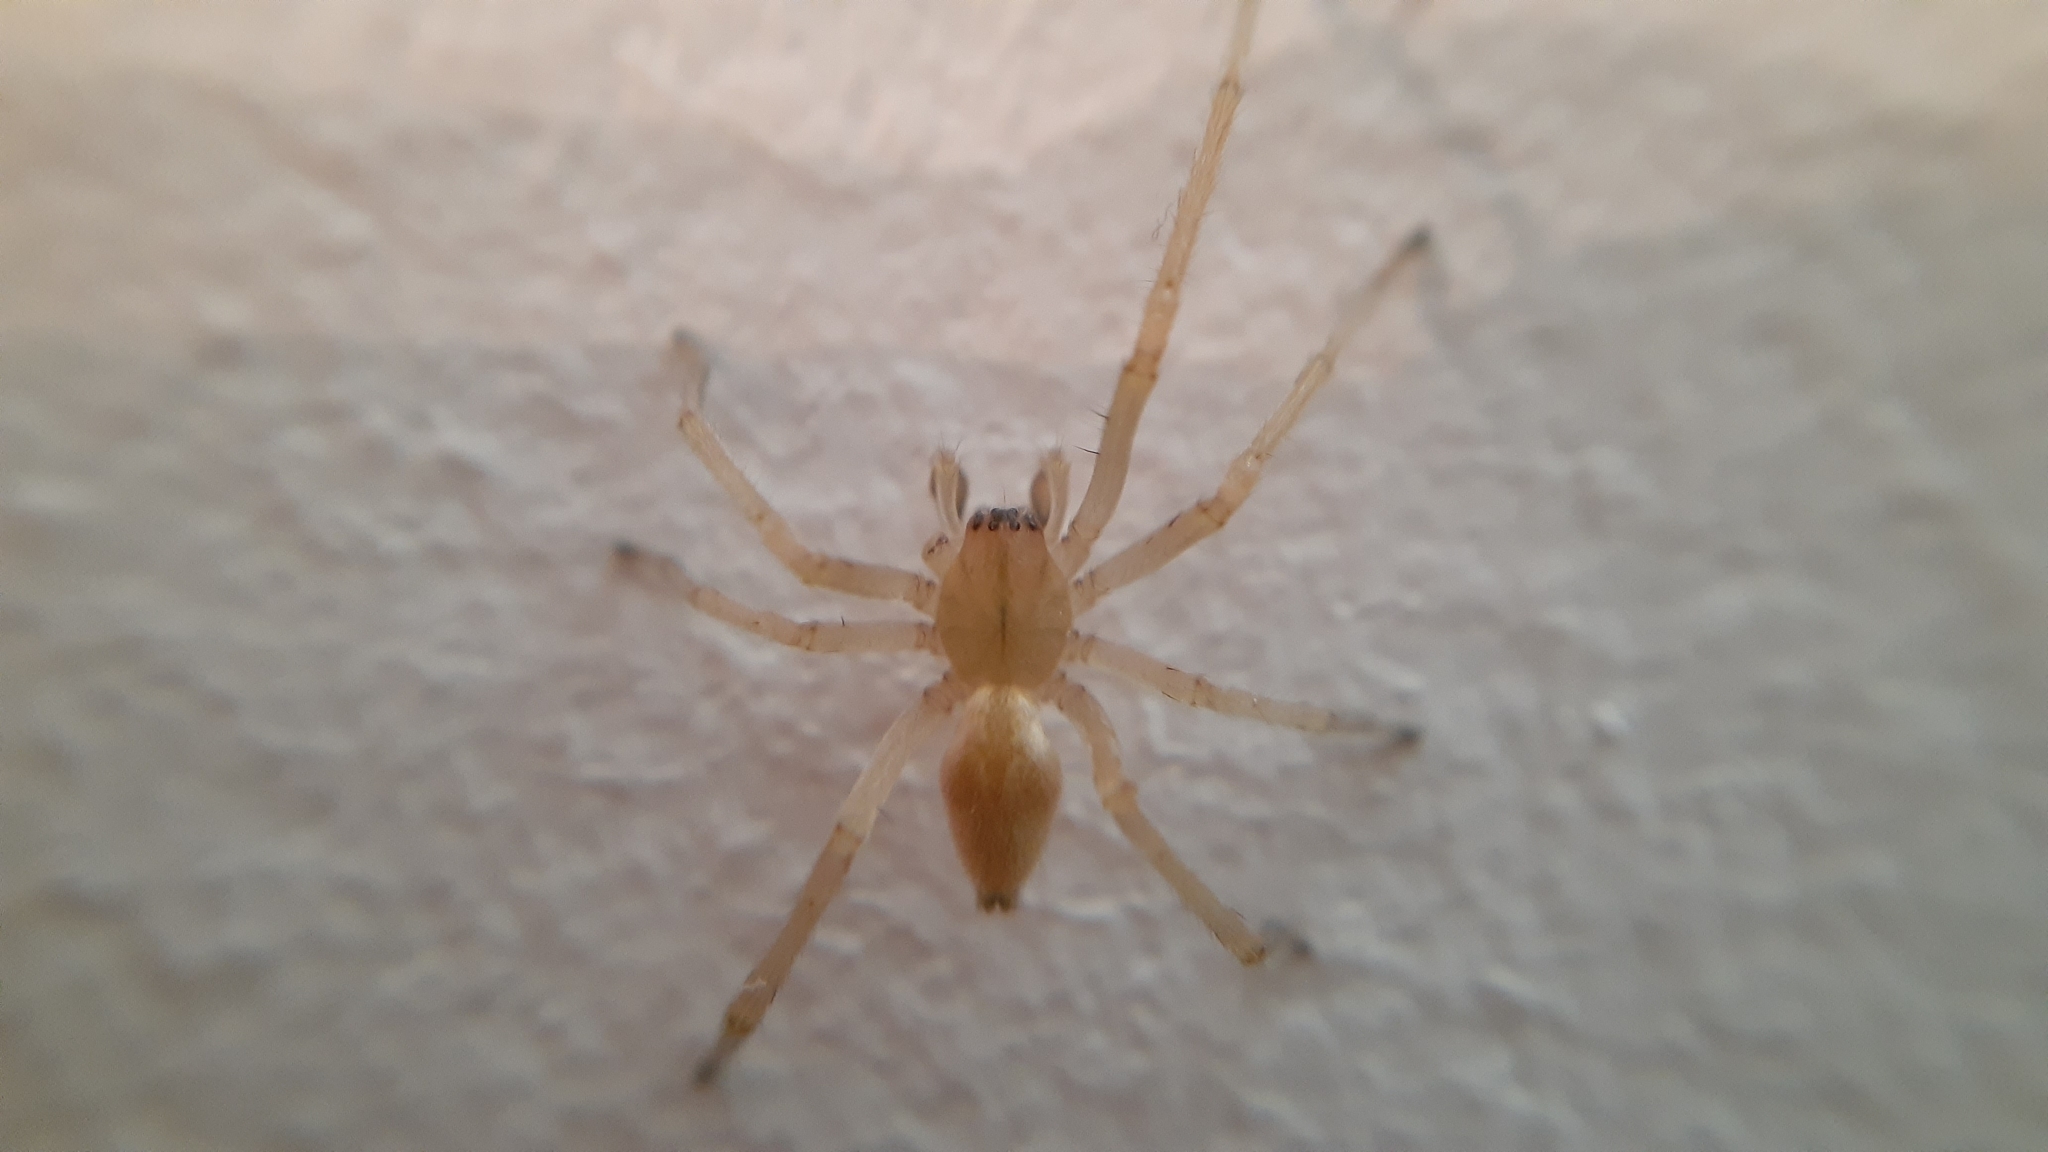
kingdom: Animalia
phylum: Arthropoda
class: Arachnida
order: Araneae
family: Cheiracanthiidae
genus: Cheiracanthium
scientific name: Cheiracanthium mildei
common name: Northern yellow sac spider
